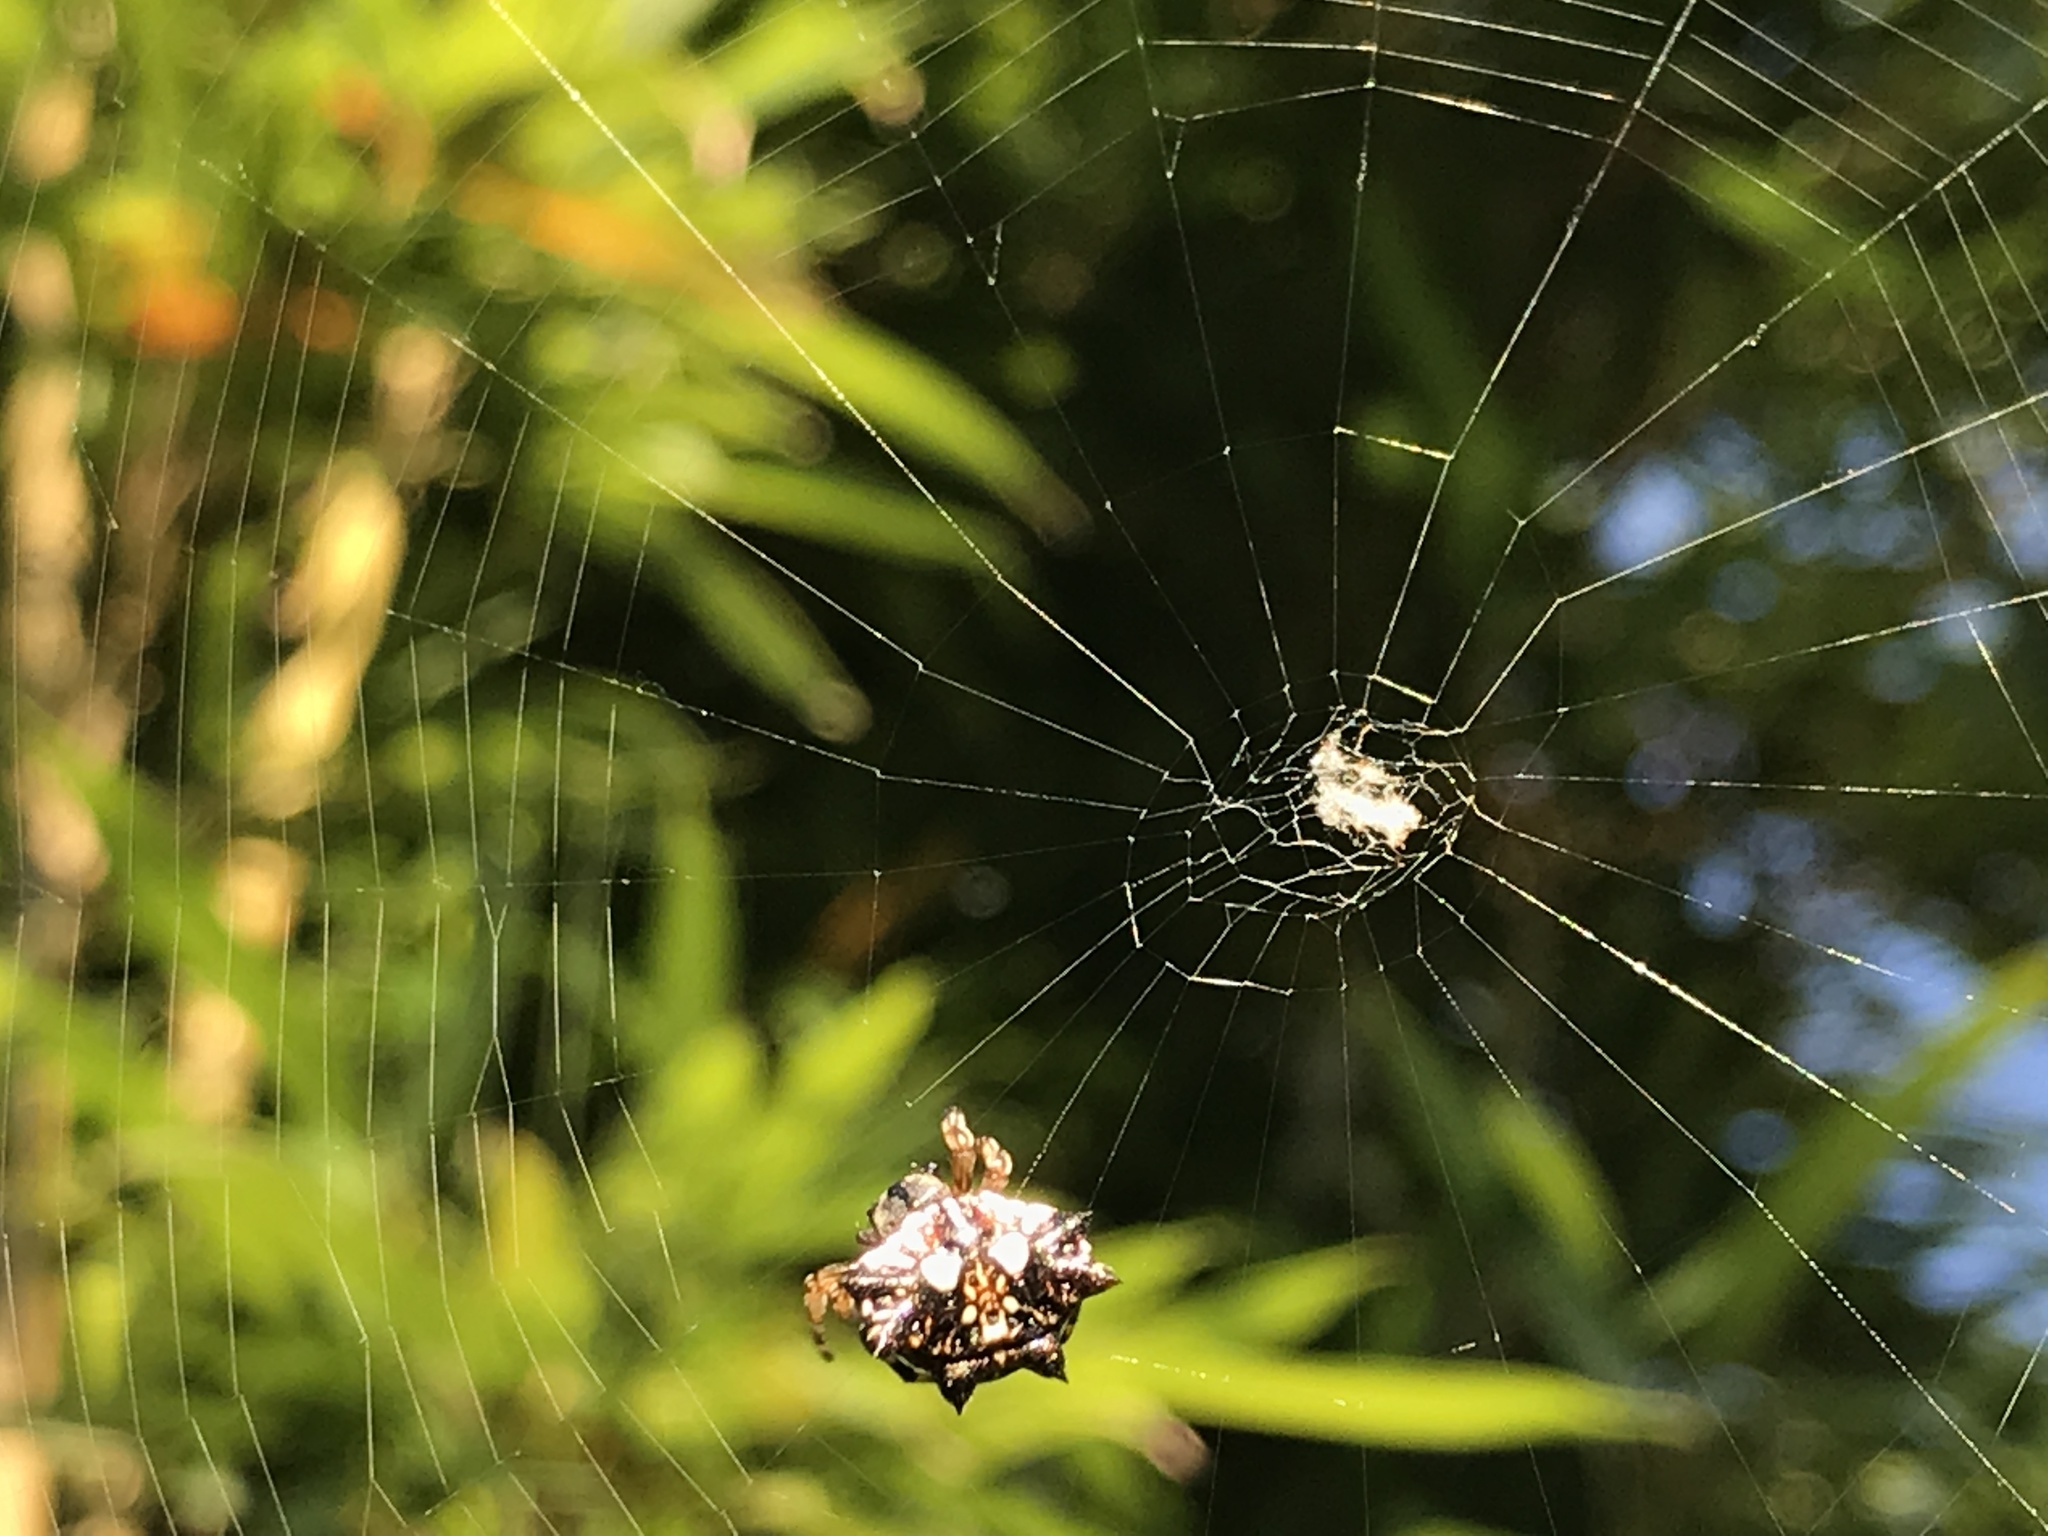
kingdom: Animalia
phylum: Arthropoda
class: Arachnida
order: Araneae
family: Araneidae
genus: Thelacantha
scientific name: Thelacantha brevispina
